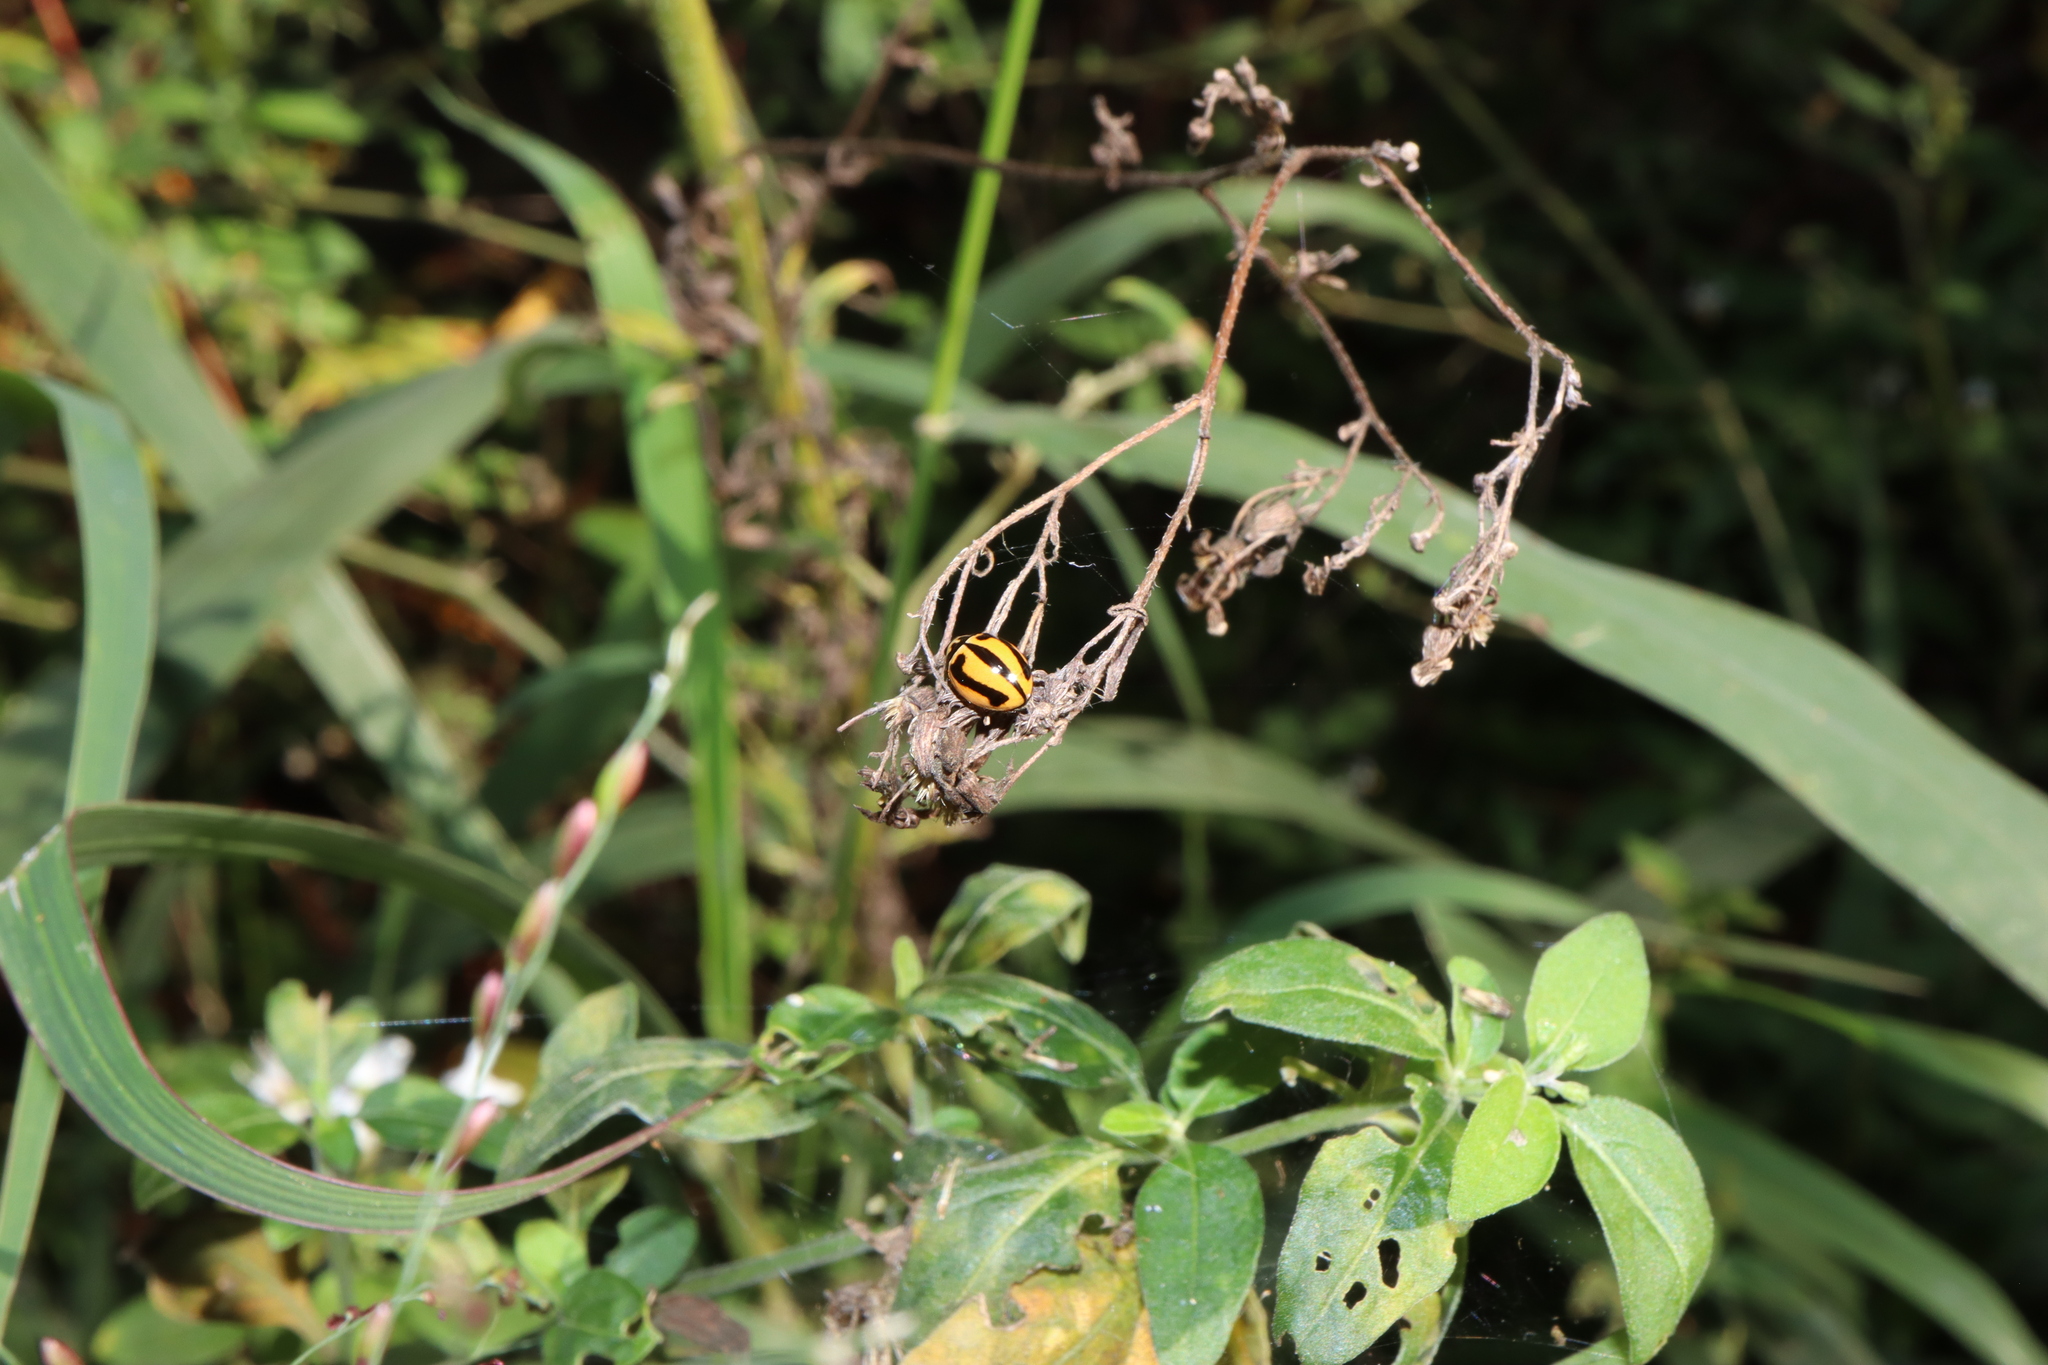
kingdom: Animalia
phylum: Arthropoda
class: Insecta
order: Coleoptera
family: Coccinellidae
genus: Micraspis
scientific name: Micraspis frenata
